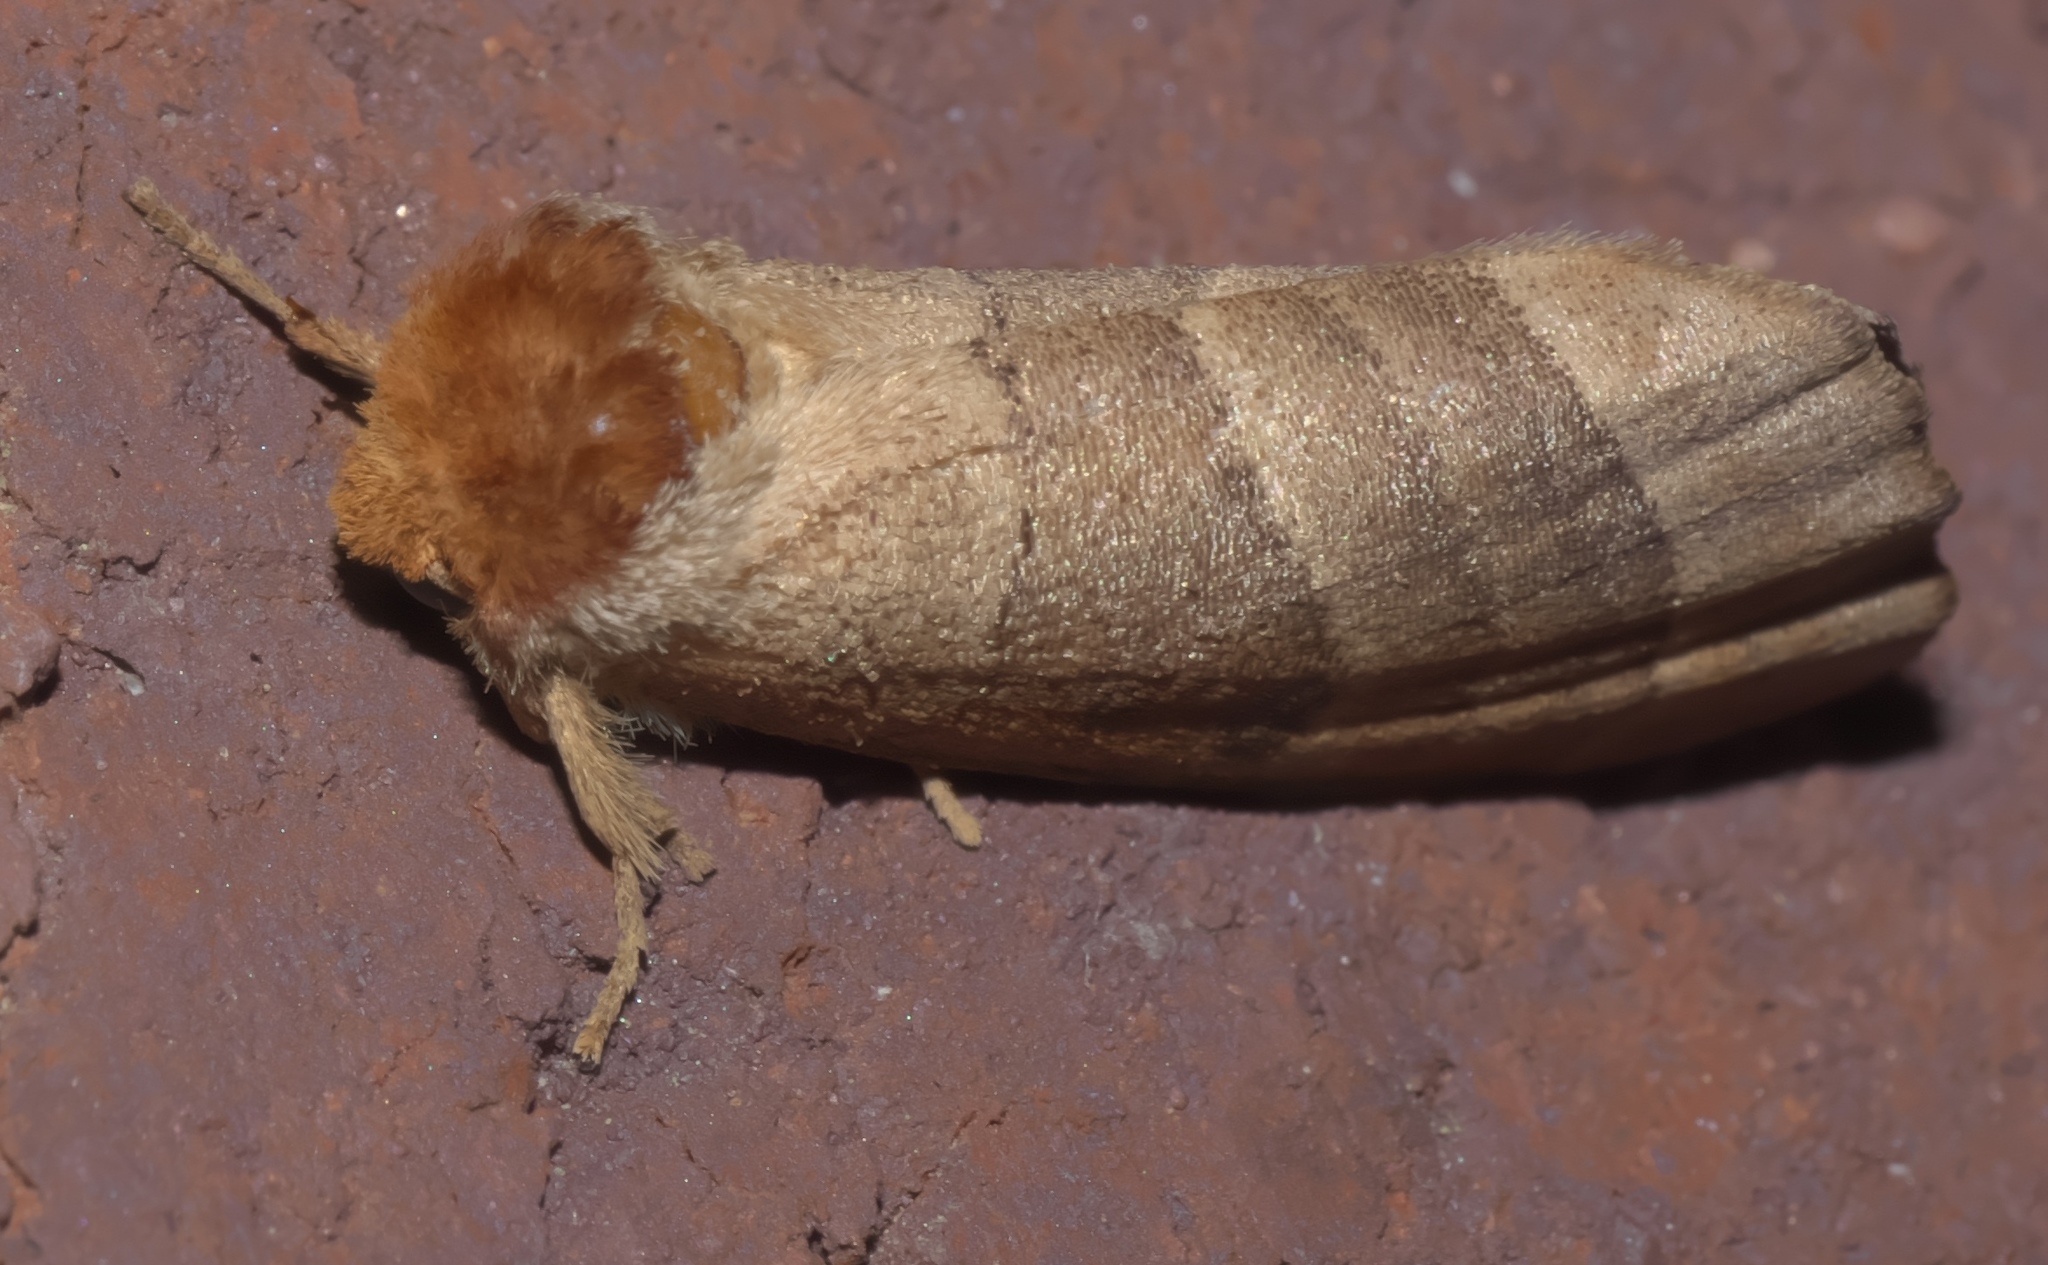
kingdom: Animalia
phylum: Arthropoda
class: Insecta
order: Lepidoptera
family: Notodontidae
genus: Datana
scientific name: Datana integerrima
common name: Walnut caterpillar
